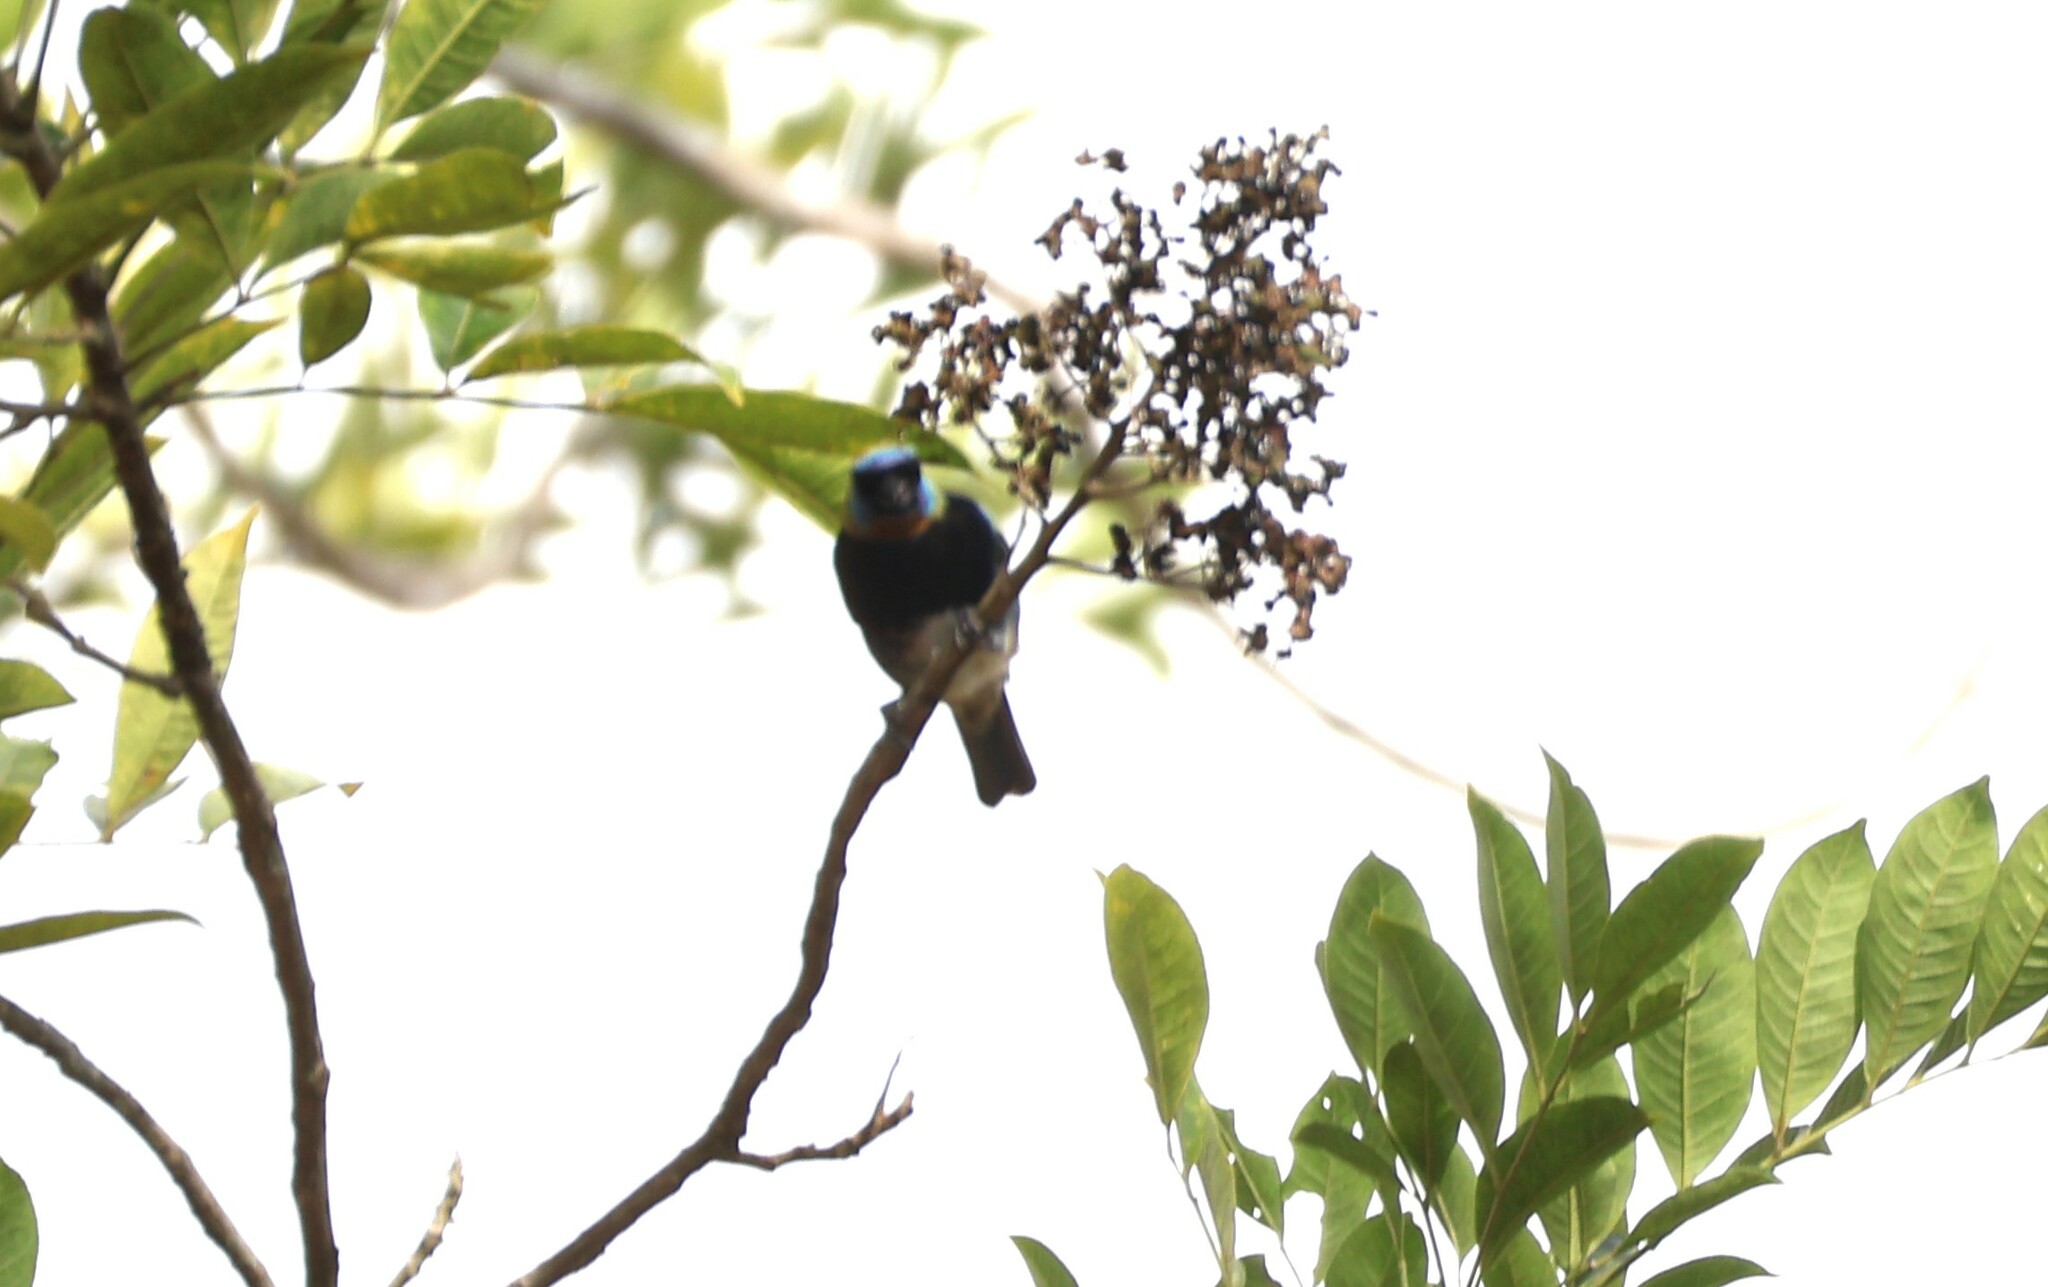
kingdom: Animalia
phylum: Chordata
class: Aves
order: Passeriformes
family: Thraupidae
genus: Stilpnia
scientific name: Stilpnia larvata
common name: Golden-hooded tanager
